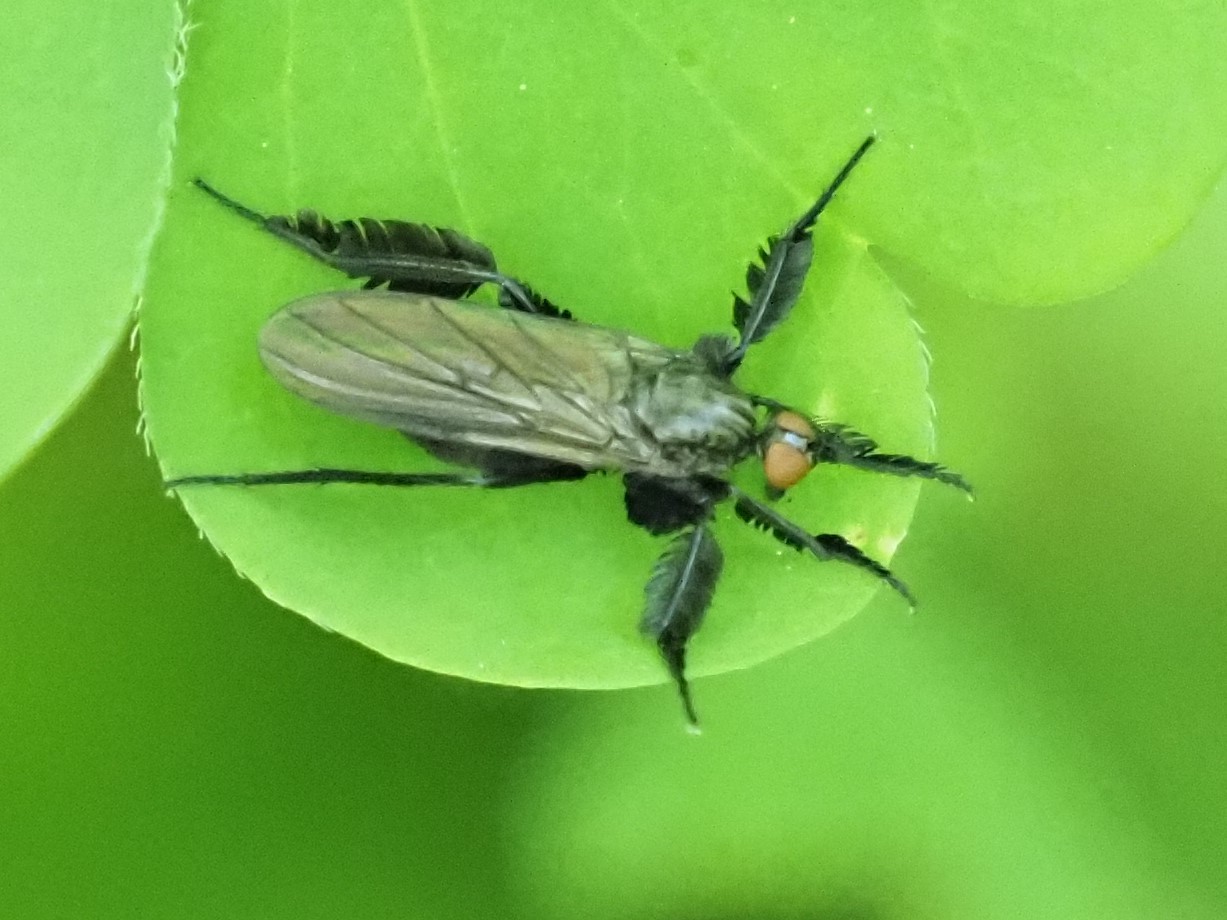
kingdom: Animalia
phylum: Arthropoda
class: Insecta
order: Diptera
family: Empididae
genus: Rhamphomyia
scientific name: Rhamphomyia longicauda
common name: Long-tailed dance fly
